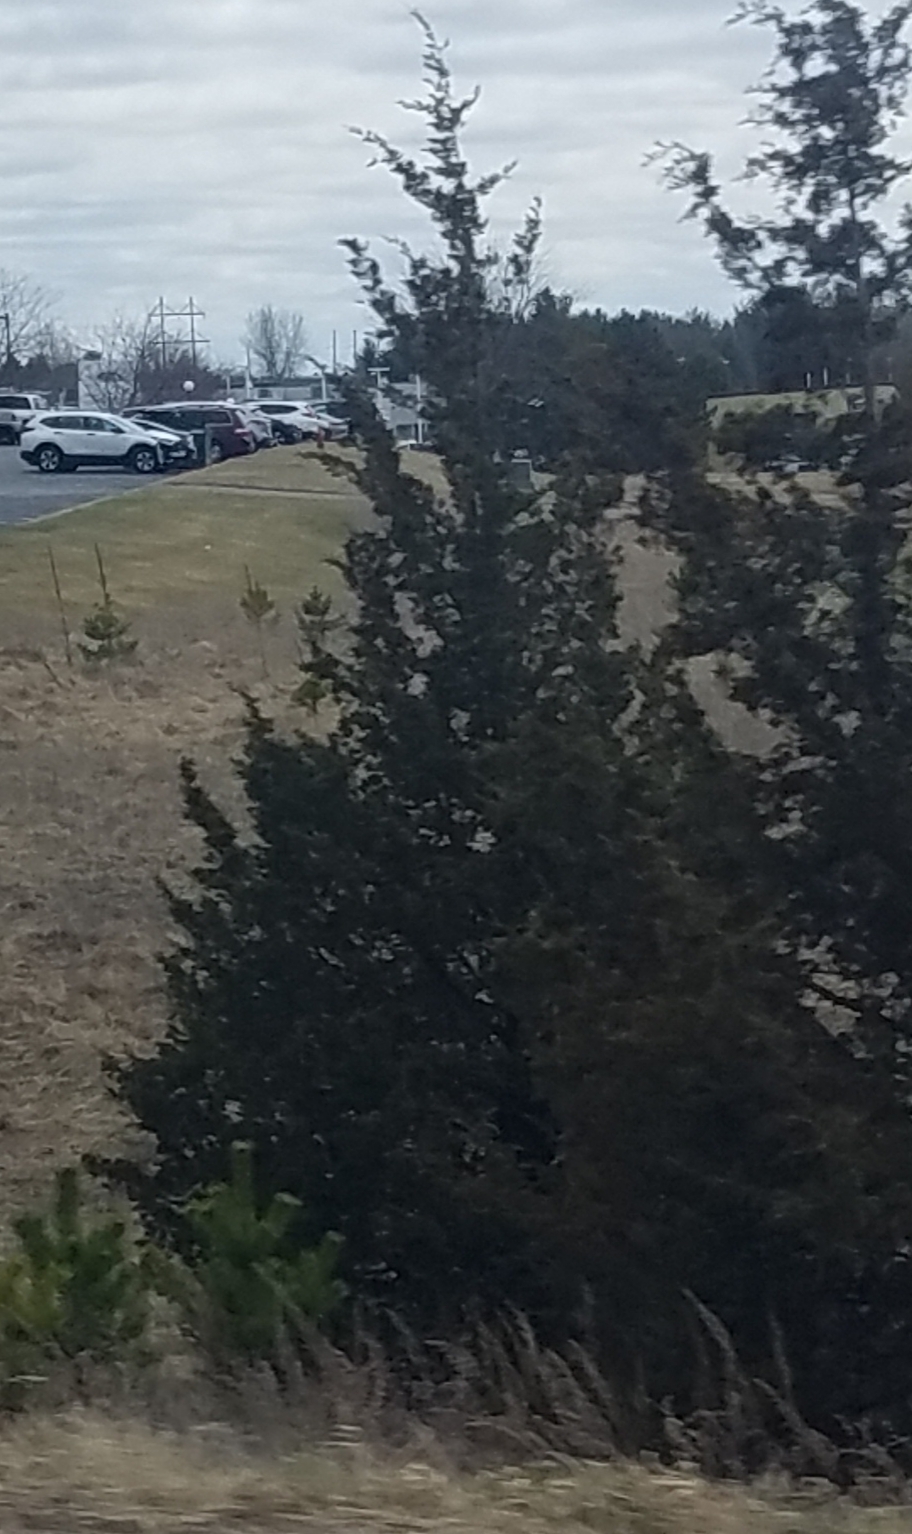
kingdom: Plantae
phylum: Tracheophyta
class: Pinopsida
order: Pinales
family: Cupressaceae
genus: Juniperus
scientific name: Juniperus virginiana
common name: Red juniper
